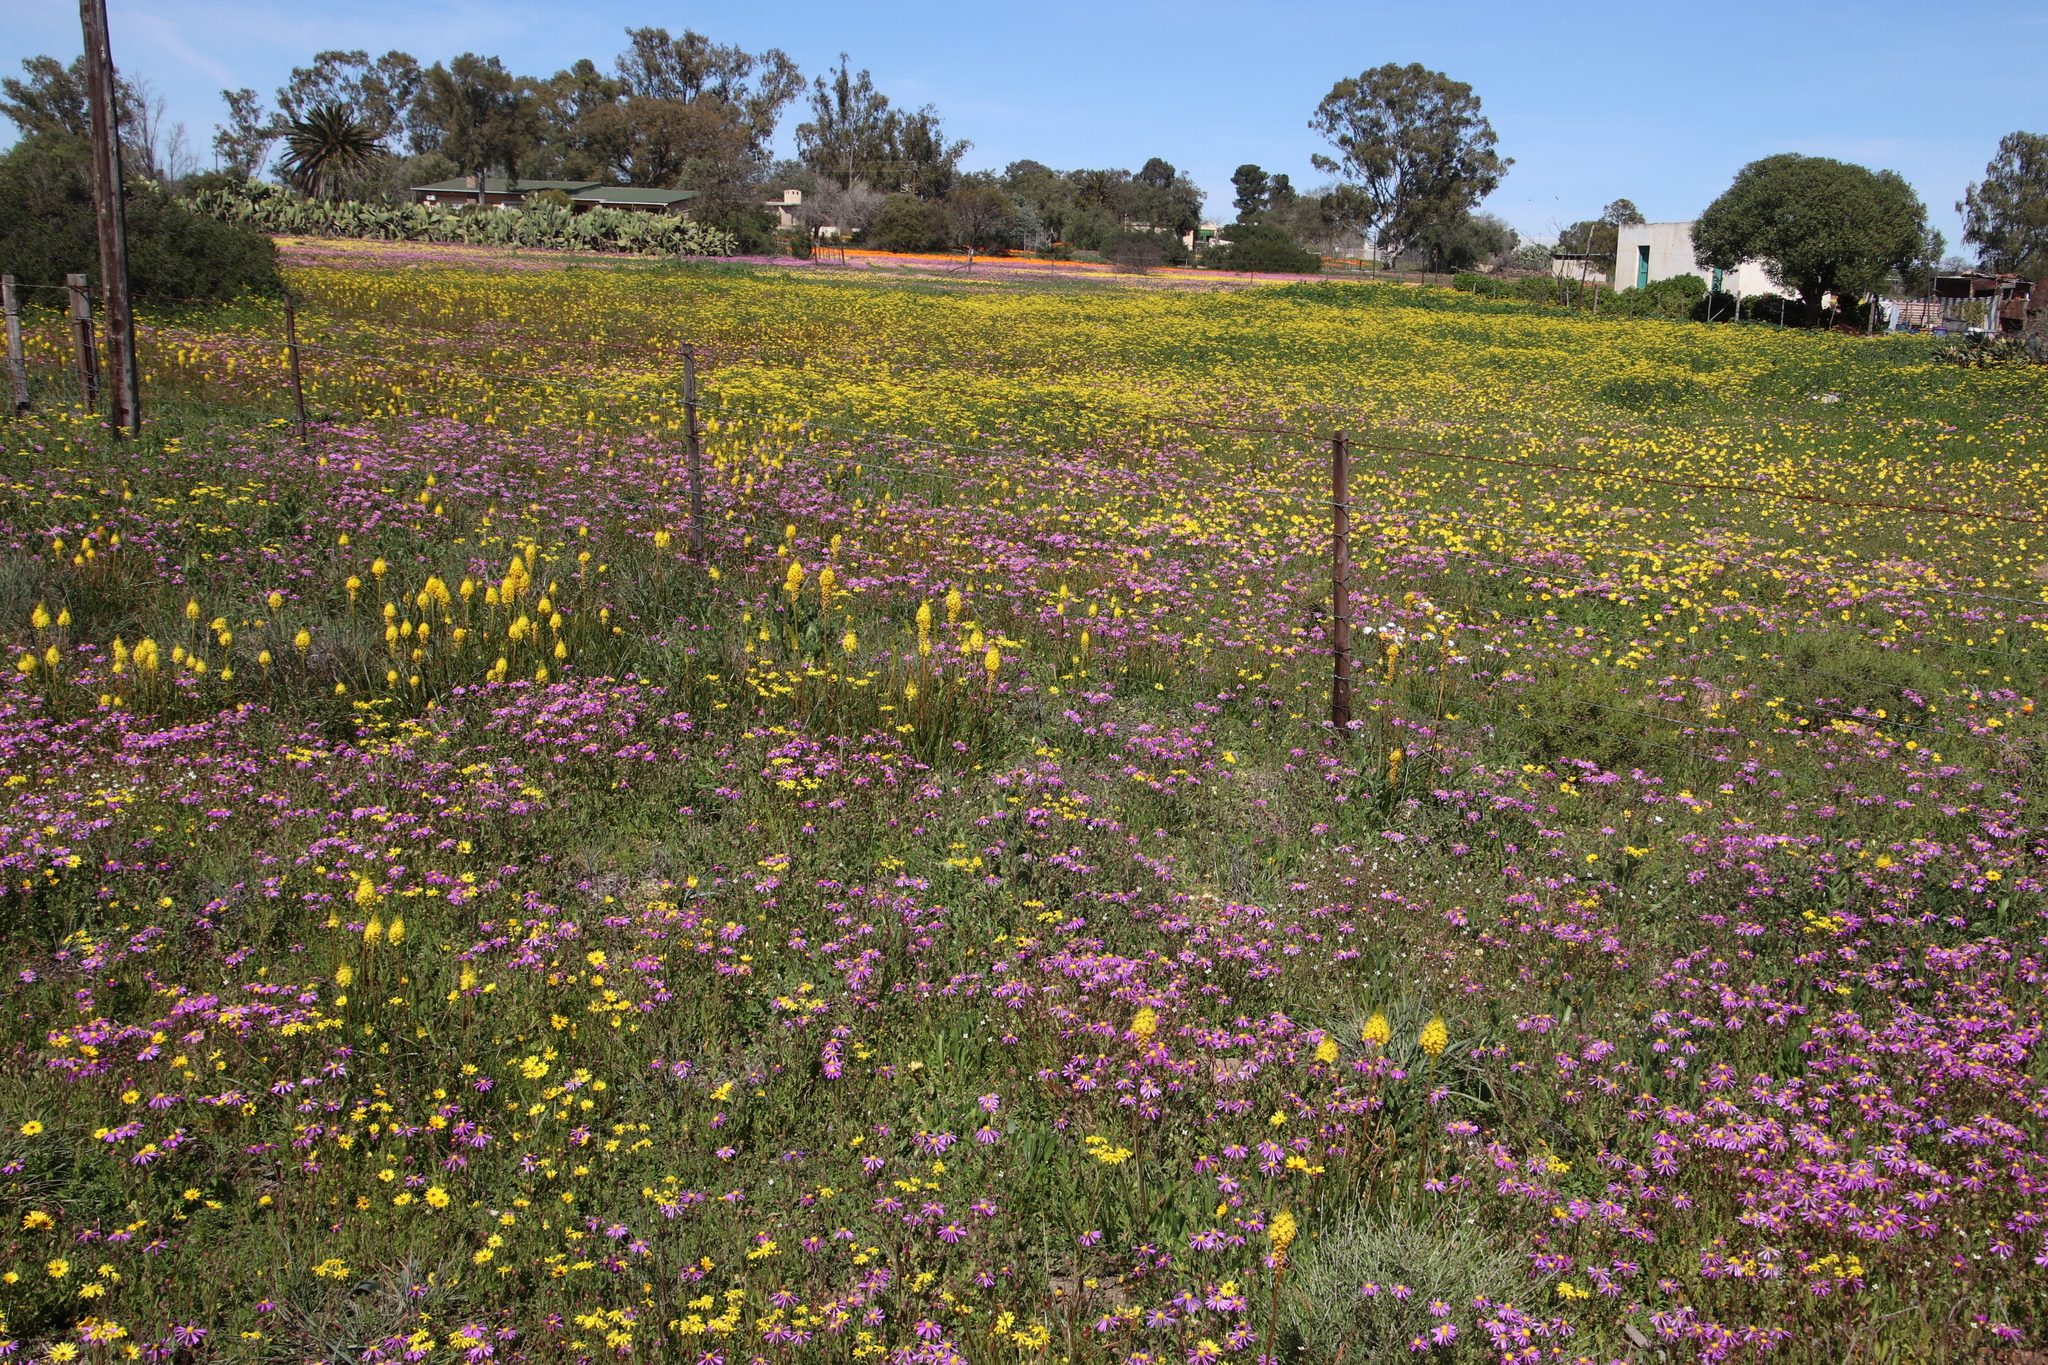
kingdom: Plantae
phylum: Tracheophyta
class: Liliopsida
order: Asparagales
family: Asphodelaceae
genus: Bulbinella
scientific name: Bulbinella nutans
